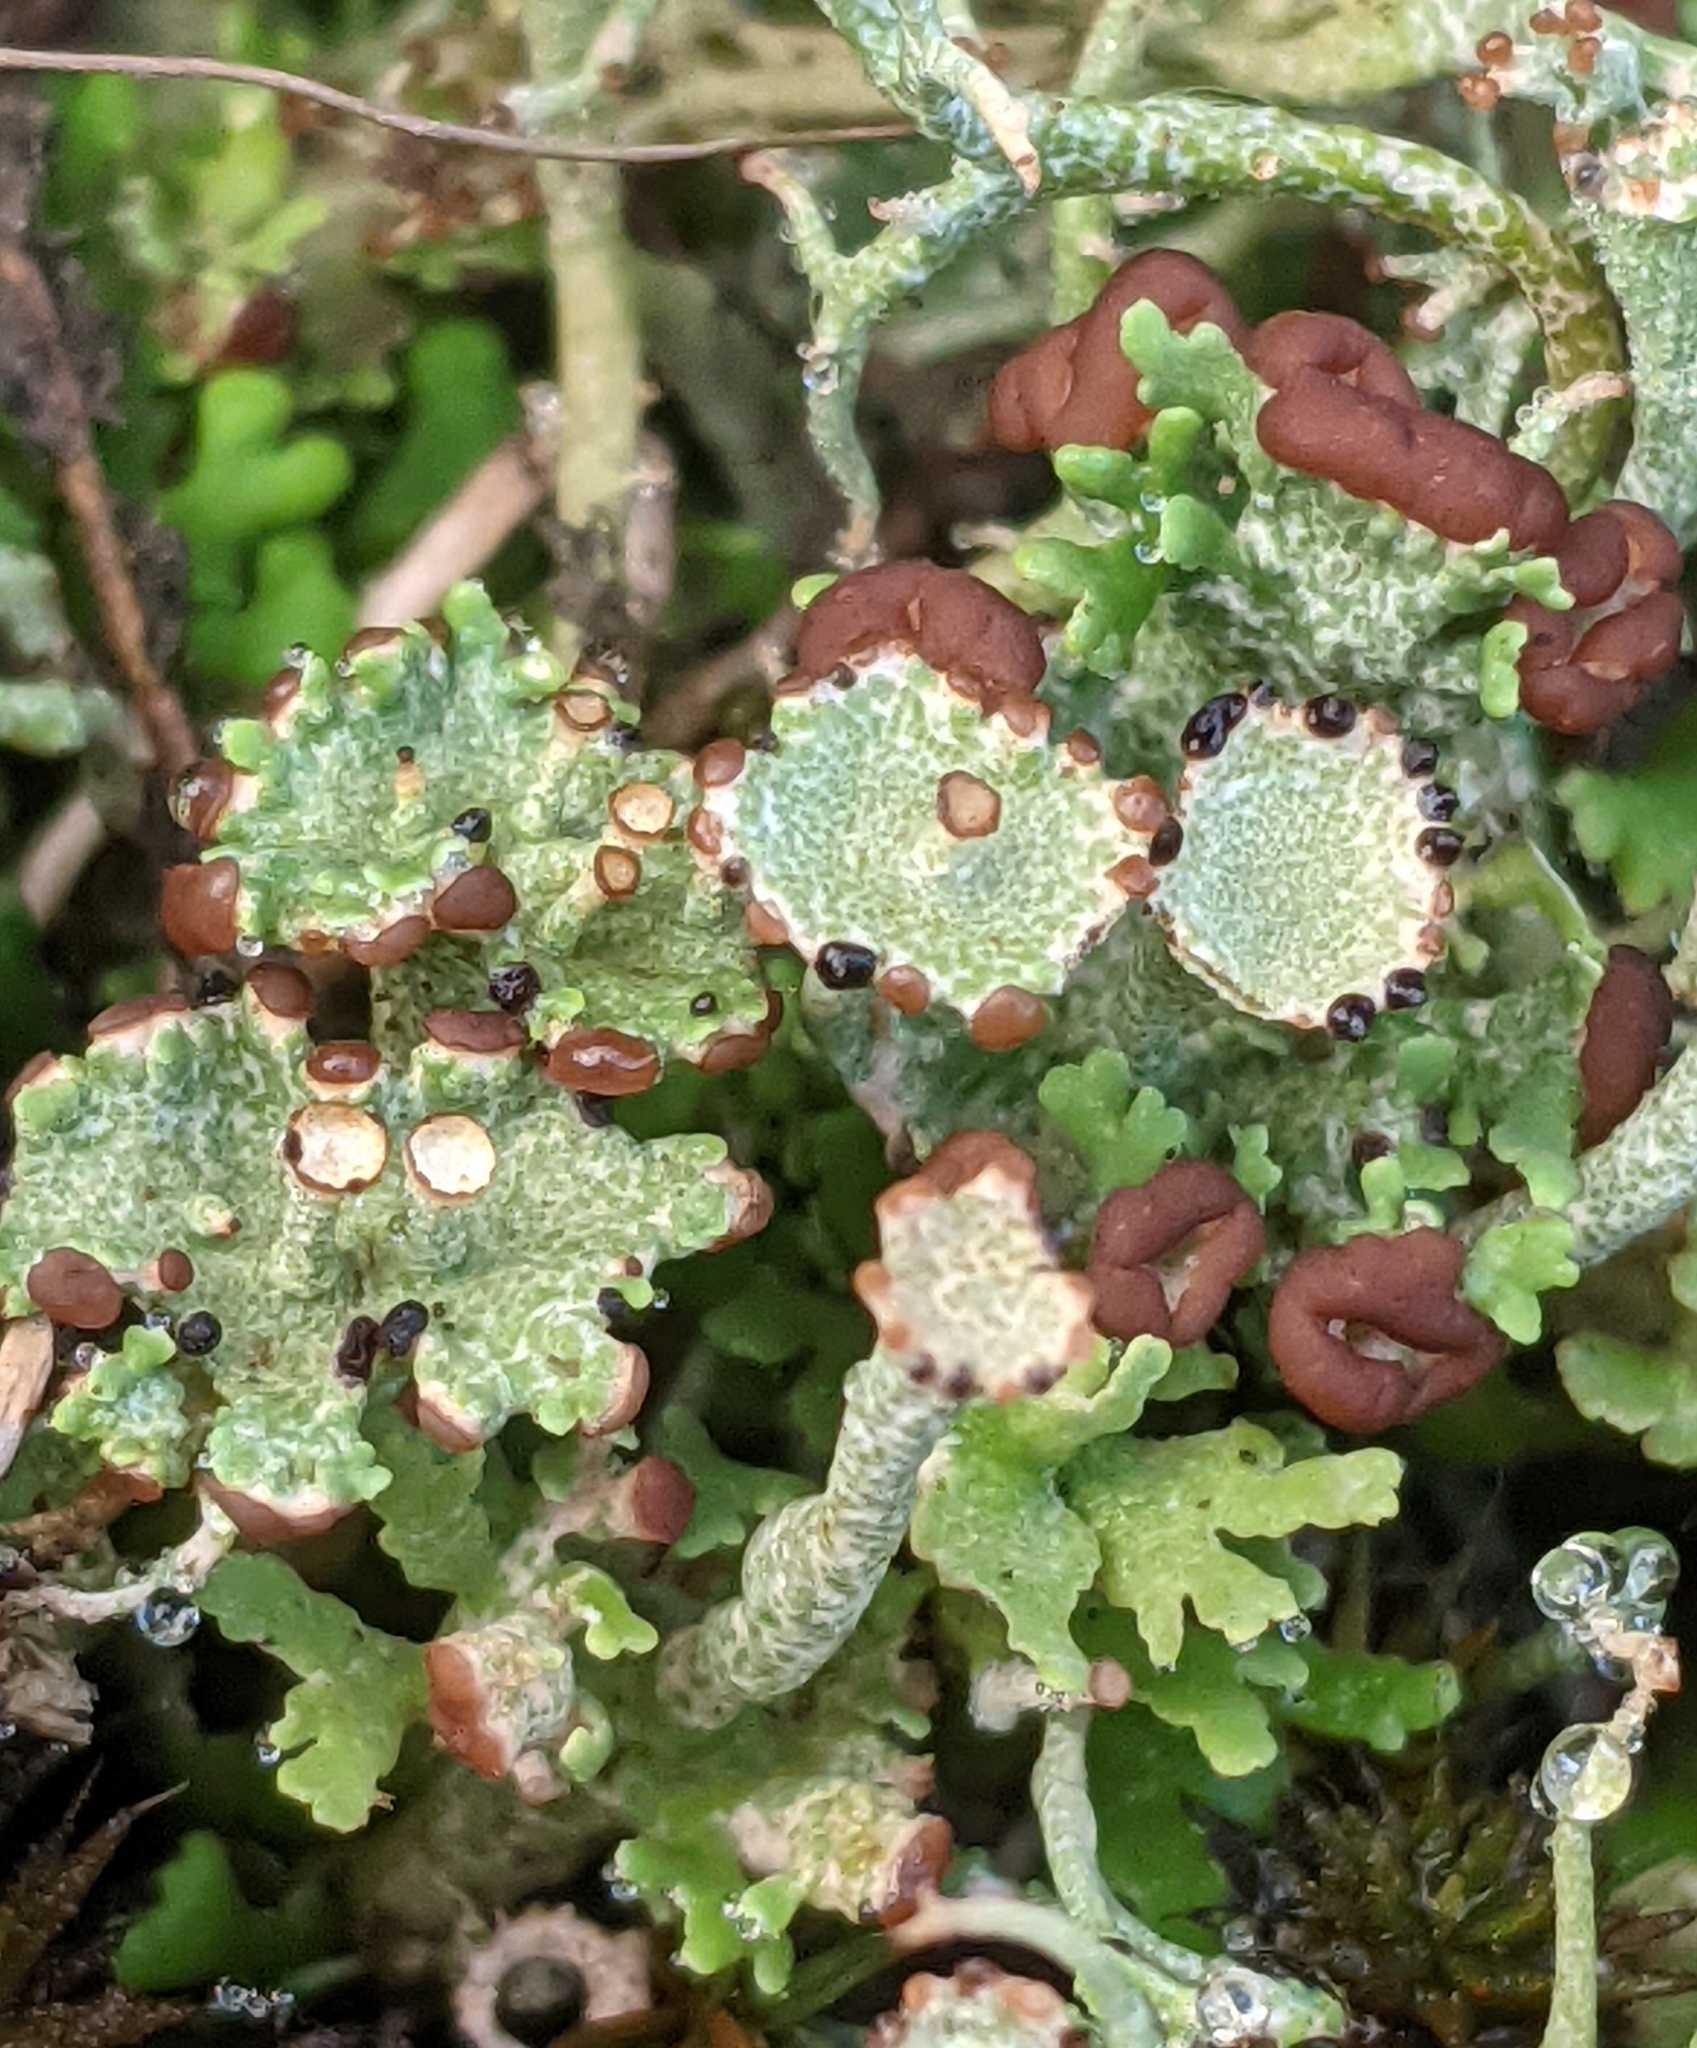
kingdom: Fungi
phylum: Ascomycota
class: Lecanoromycetes
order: Lecanorales
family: Cladoniaceae
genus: Cladonia
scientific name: Cladonia cervicornis
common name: Browned pixie-cup lichen
